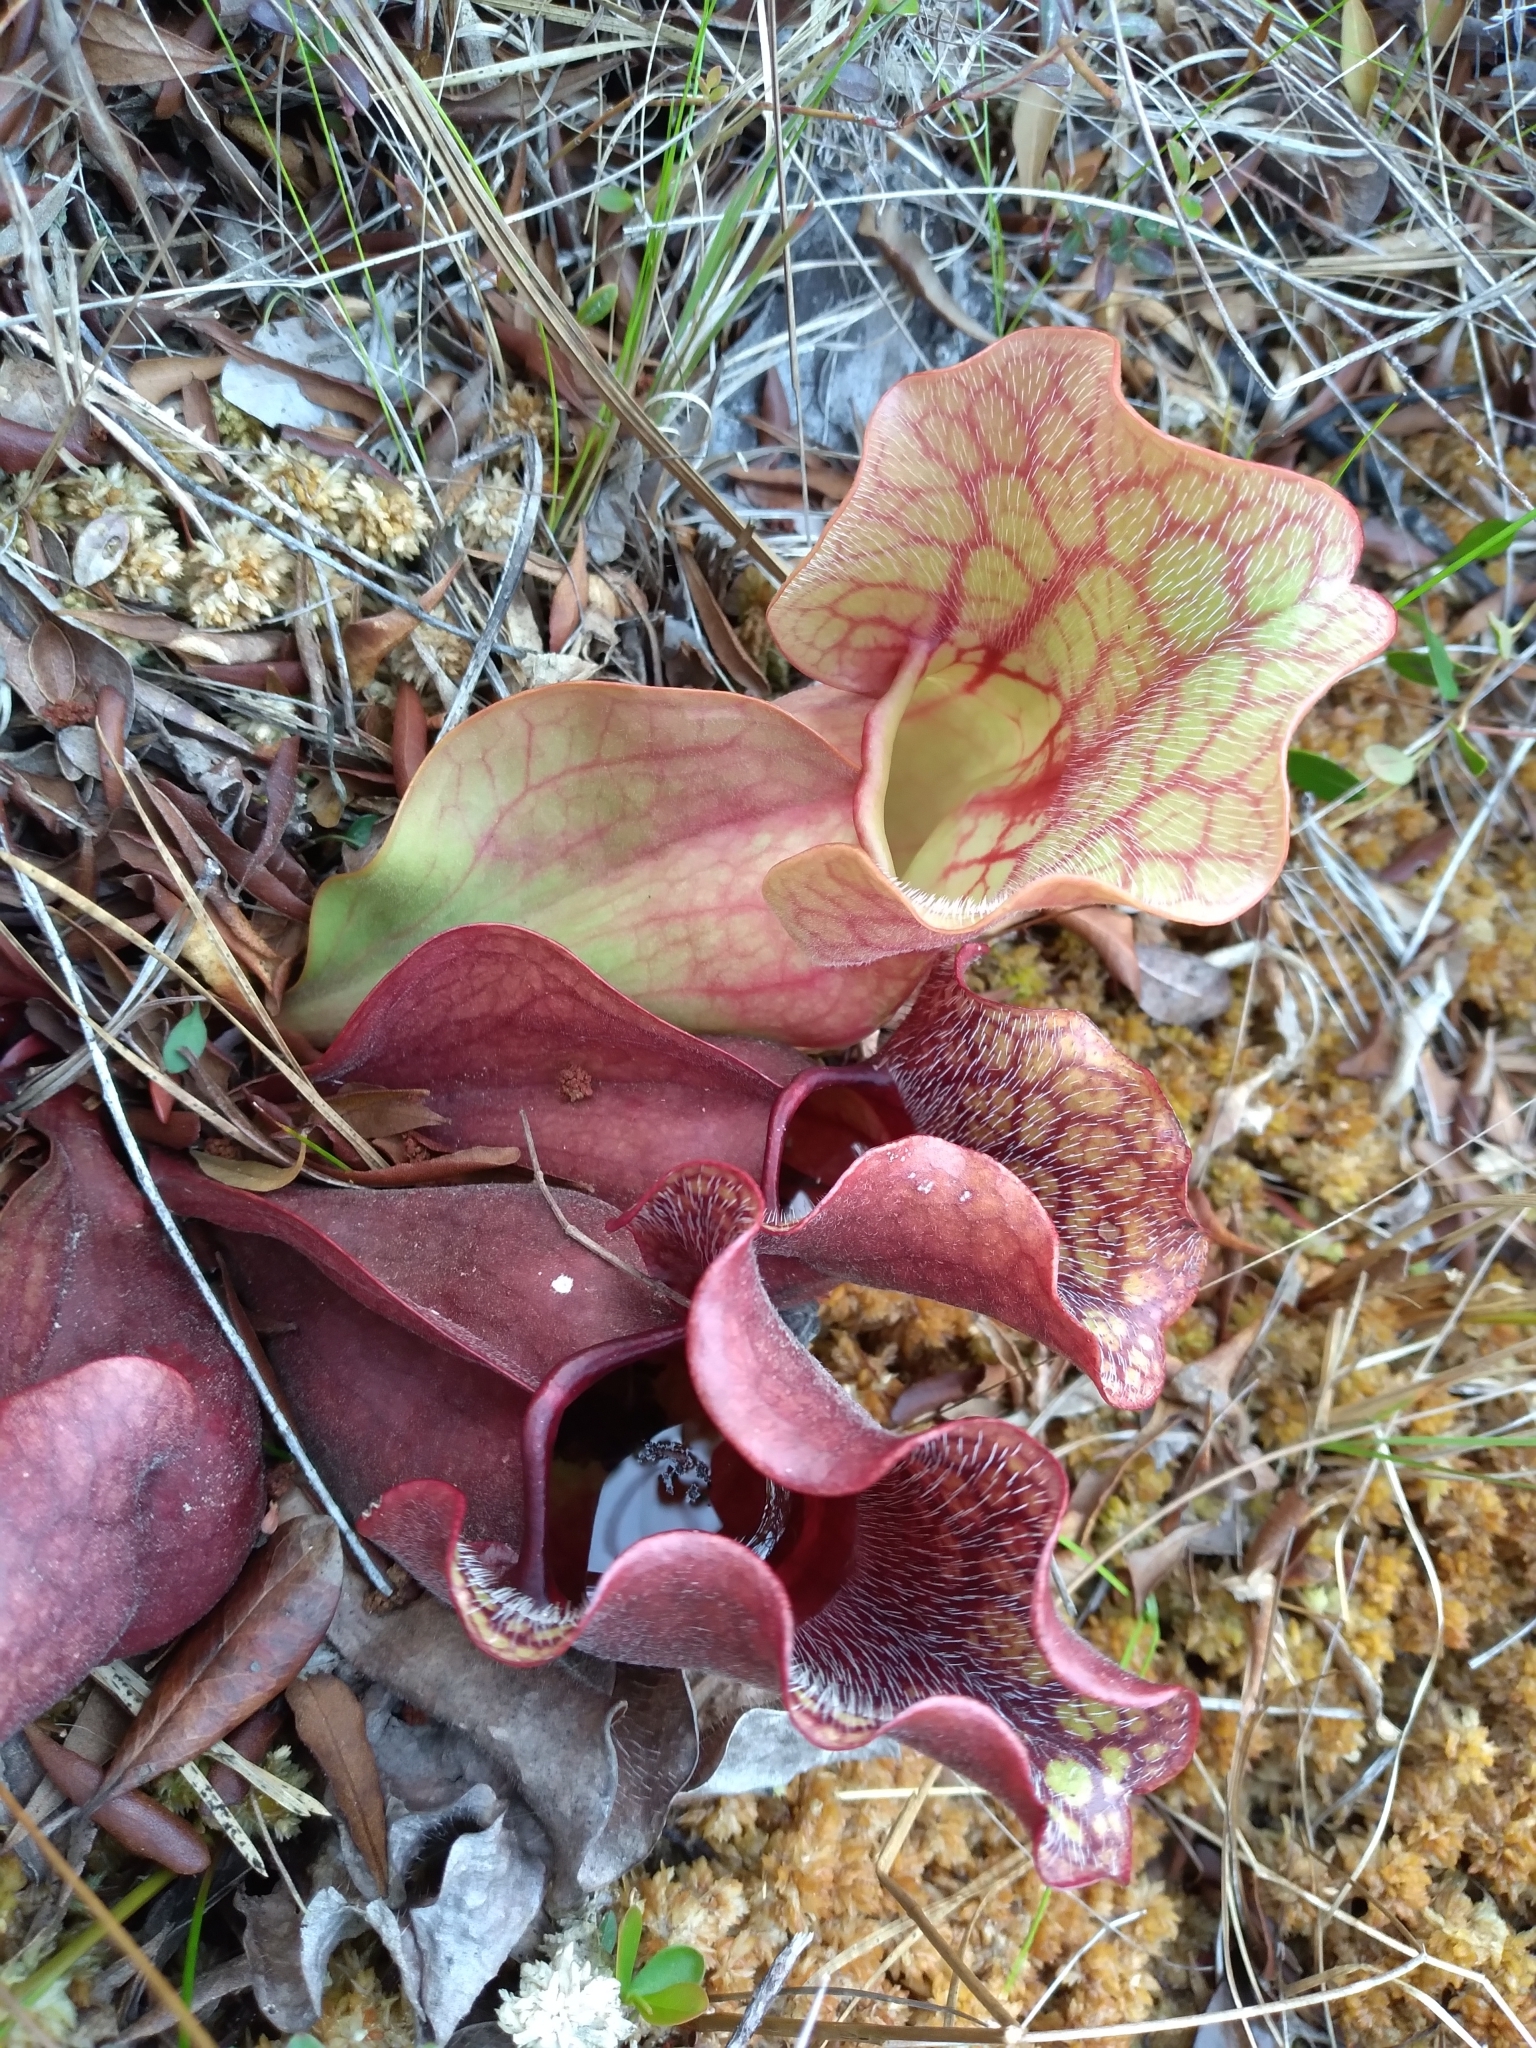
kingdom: Plantae
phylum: Tracheophyta
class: Magnoliopsida
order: Ericales
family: Sarraceniaceae
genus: Sarracenia
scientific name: Sarracenia purpurea
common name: Pitcherplant
